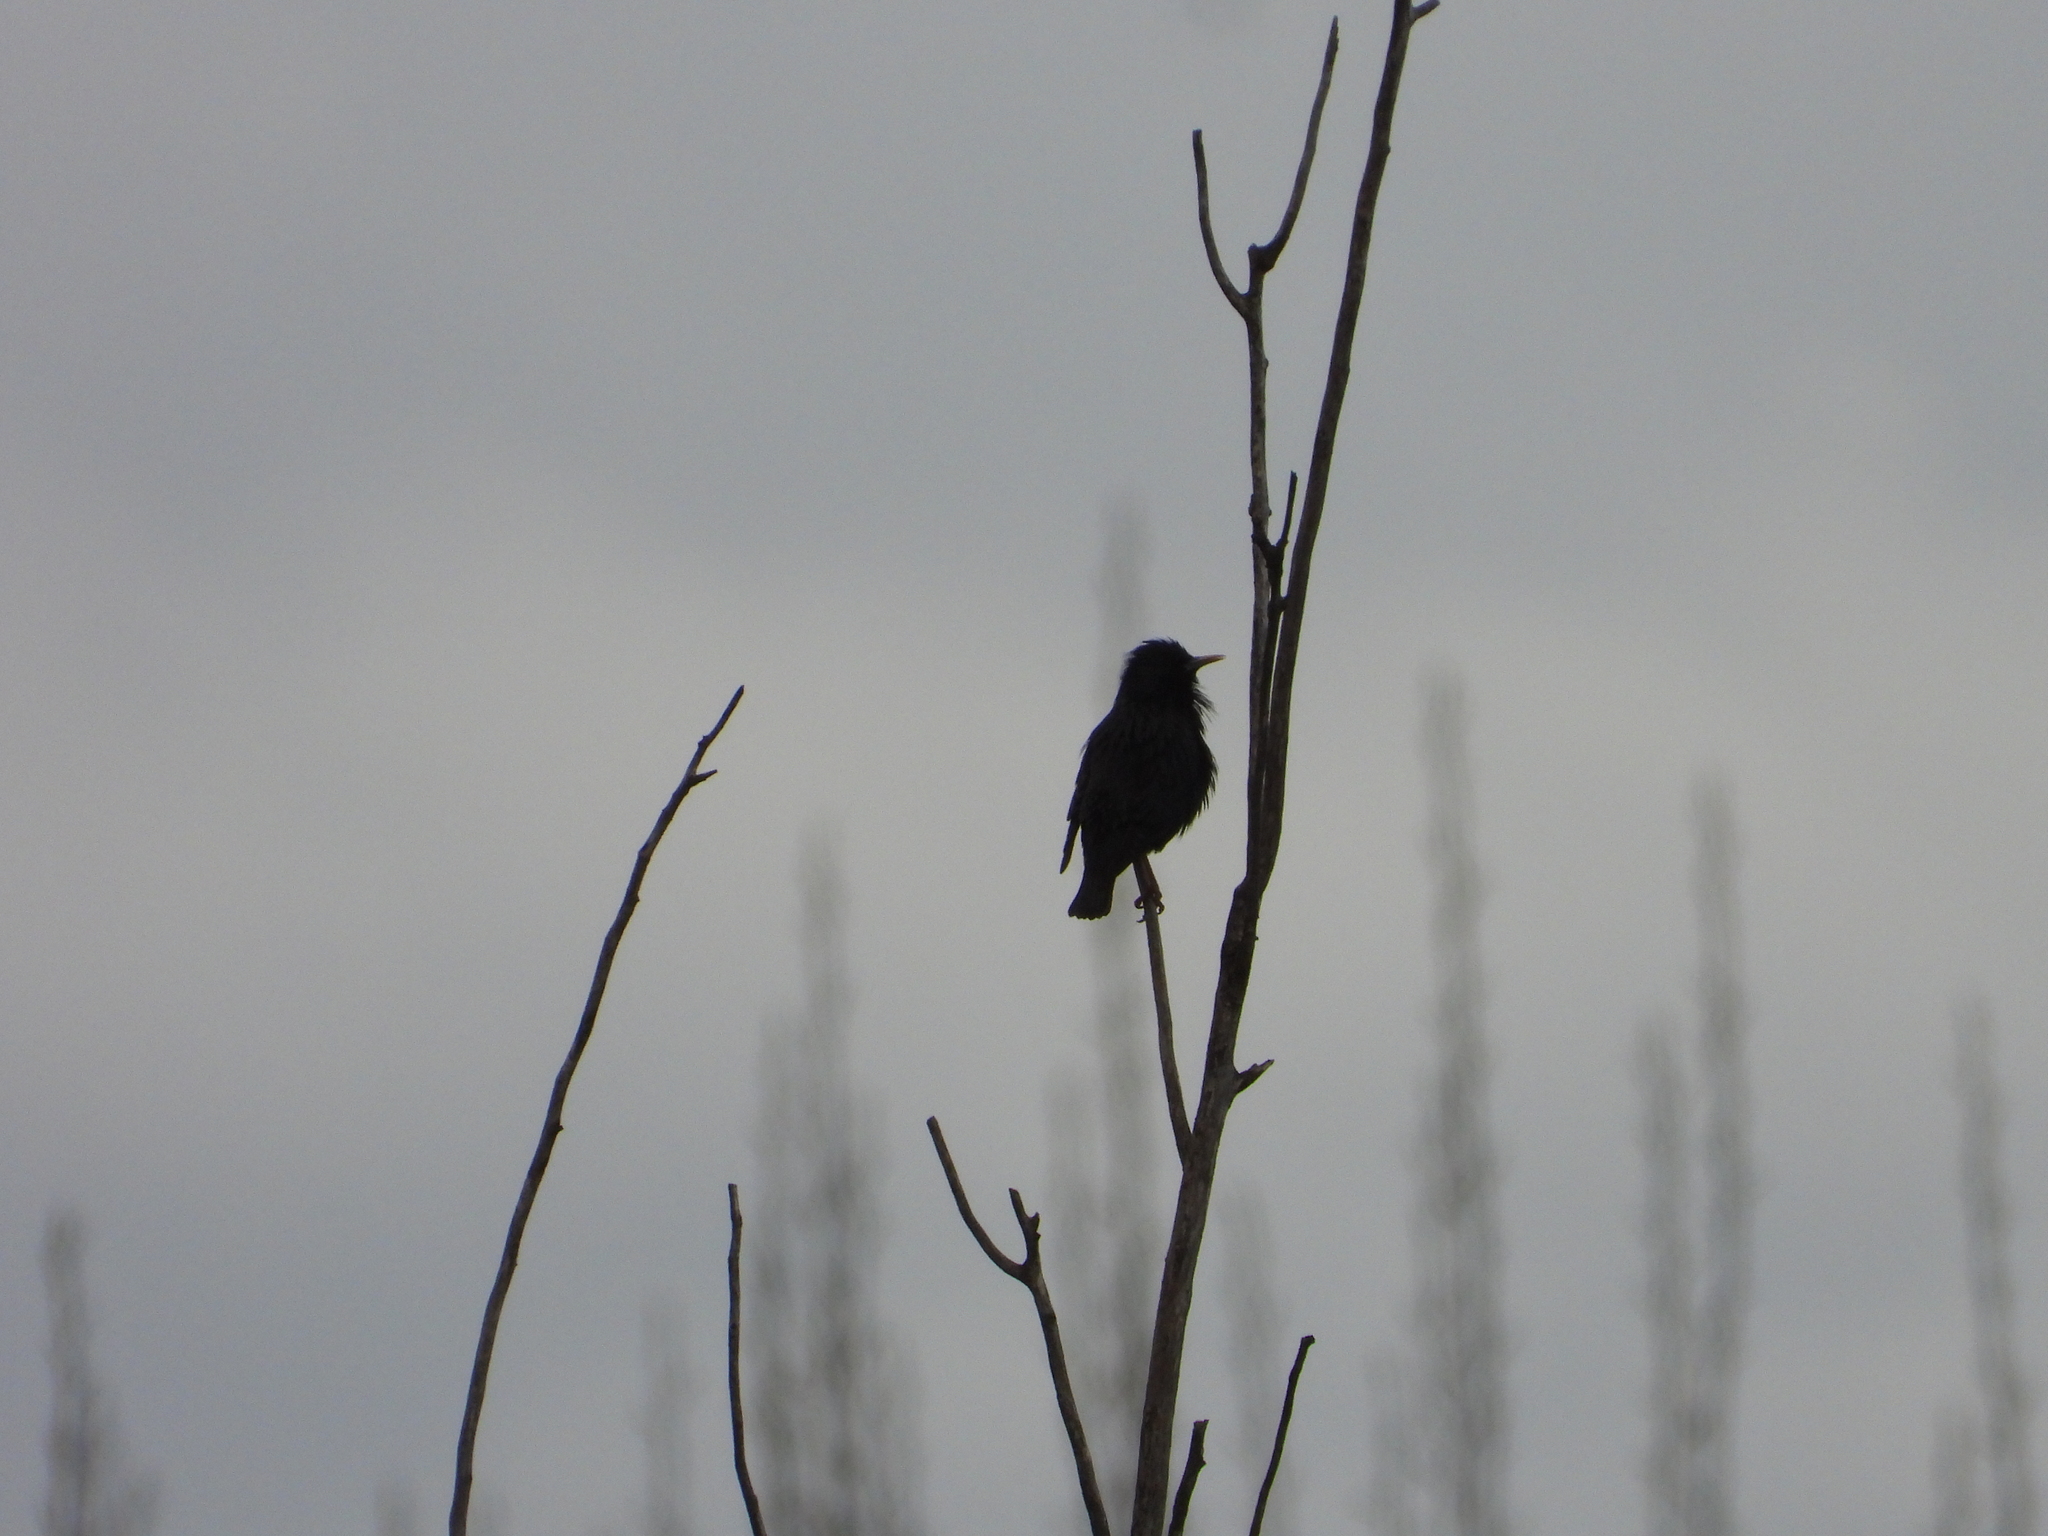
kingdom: Animalia
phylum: Chordata
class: Aves
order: Passeriformes
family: Sturnidae
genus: Sturnus
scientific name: Sturnus unicolor
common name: Spotless starling
